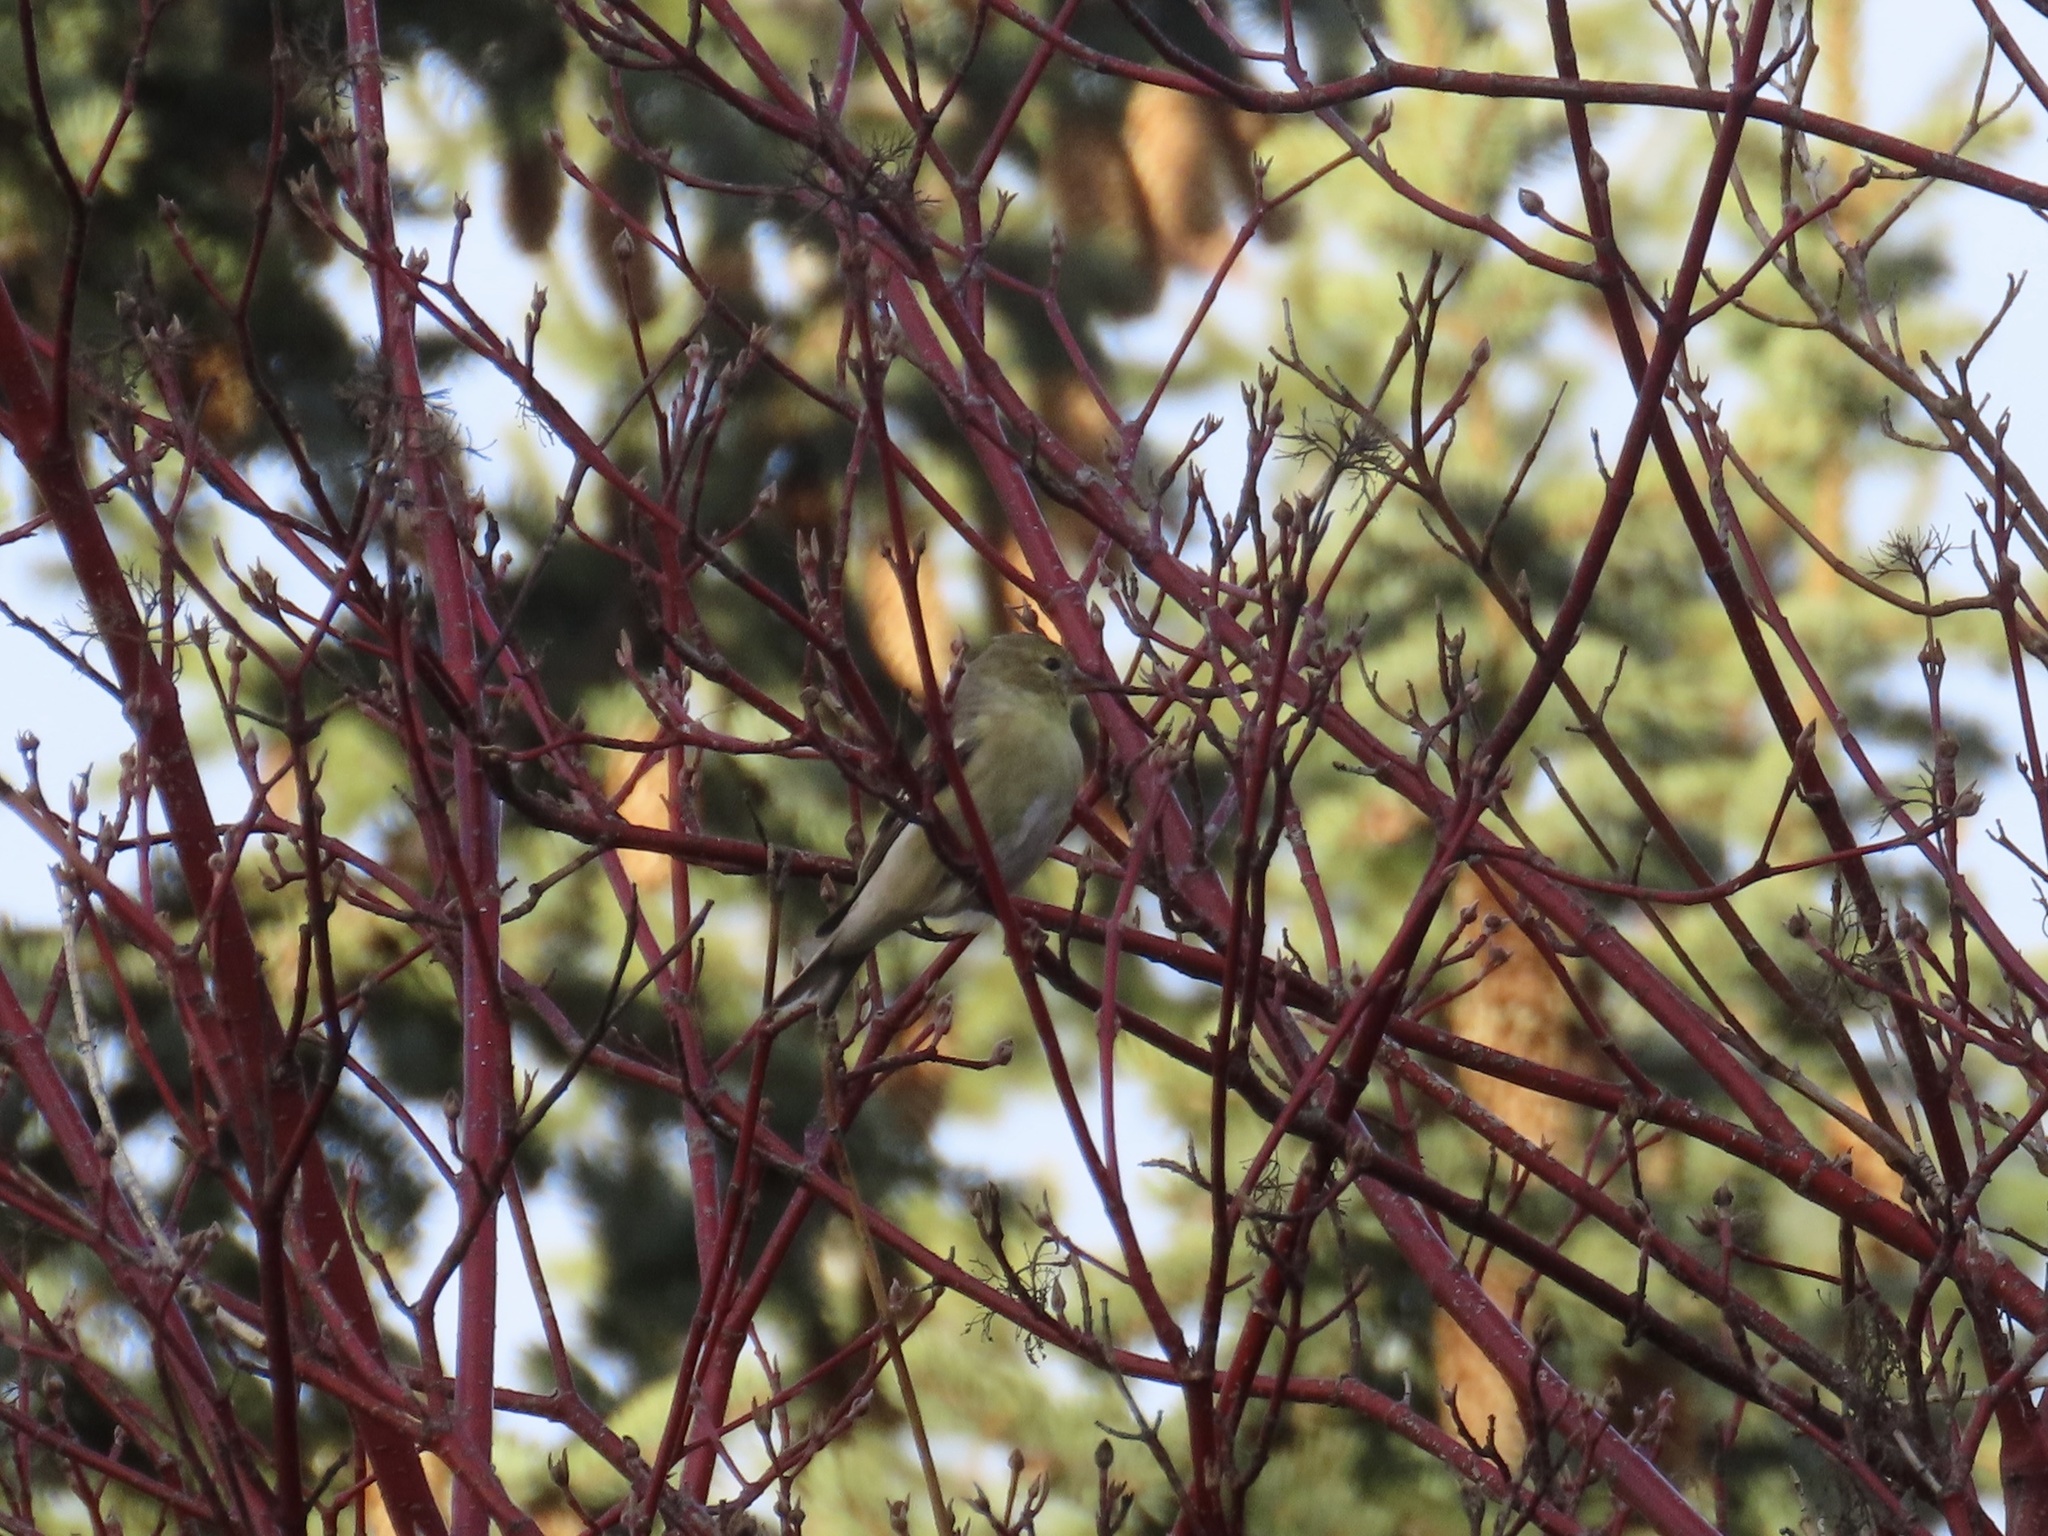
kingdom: Animalia
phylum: Chordata
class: Aves
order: Passeriformes
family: Fringillidae
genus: Spinus
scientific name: Spinus tristis
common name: American goldfinch
